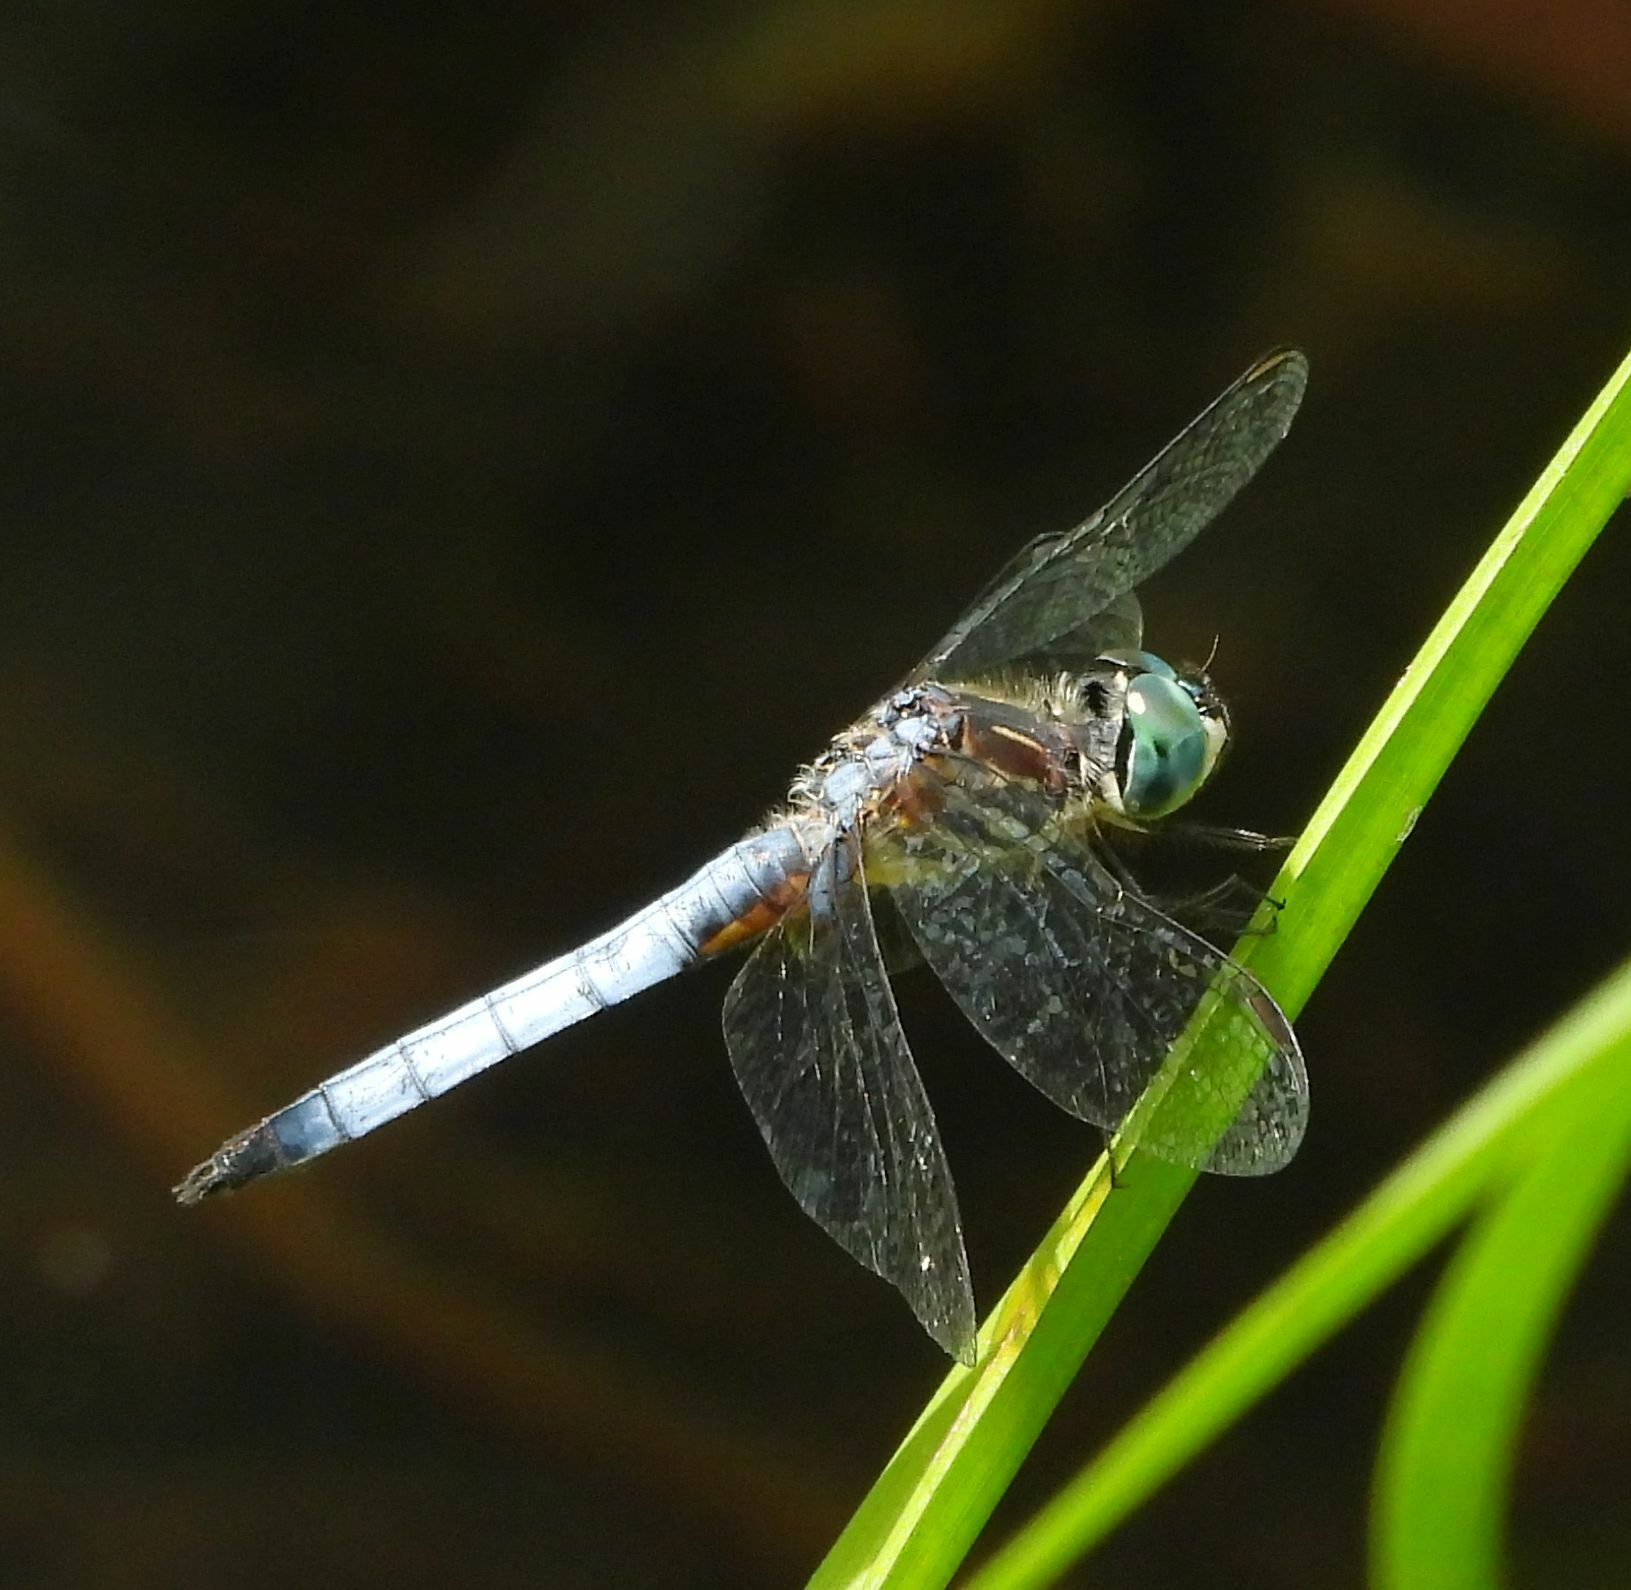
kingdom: Animalia
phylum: Arthropoda
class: Insecta
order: Odonata
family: Libellulidae
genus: Pachydiplax
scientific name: Pachydiplax longipennis
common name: Blue dasher
